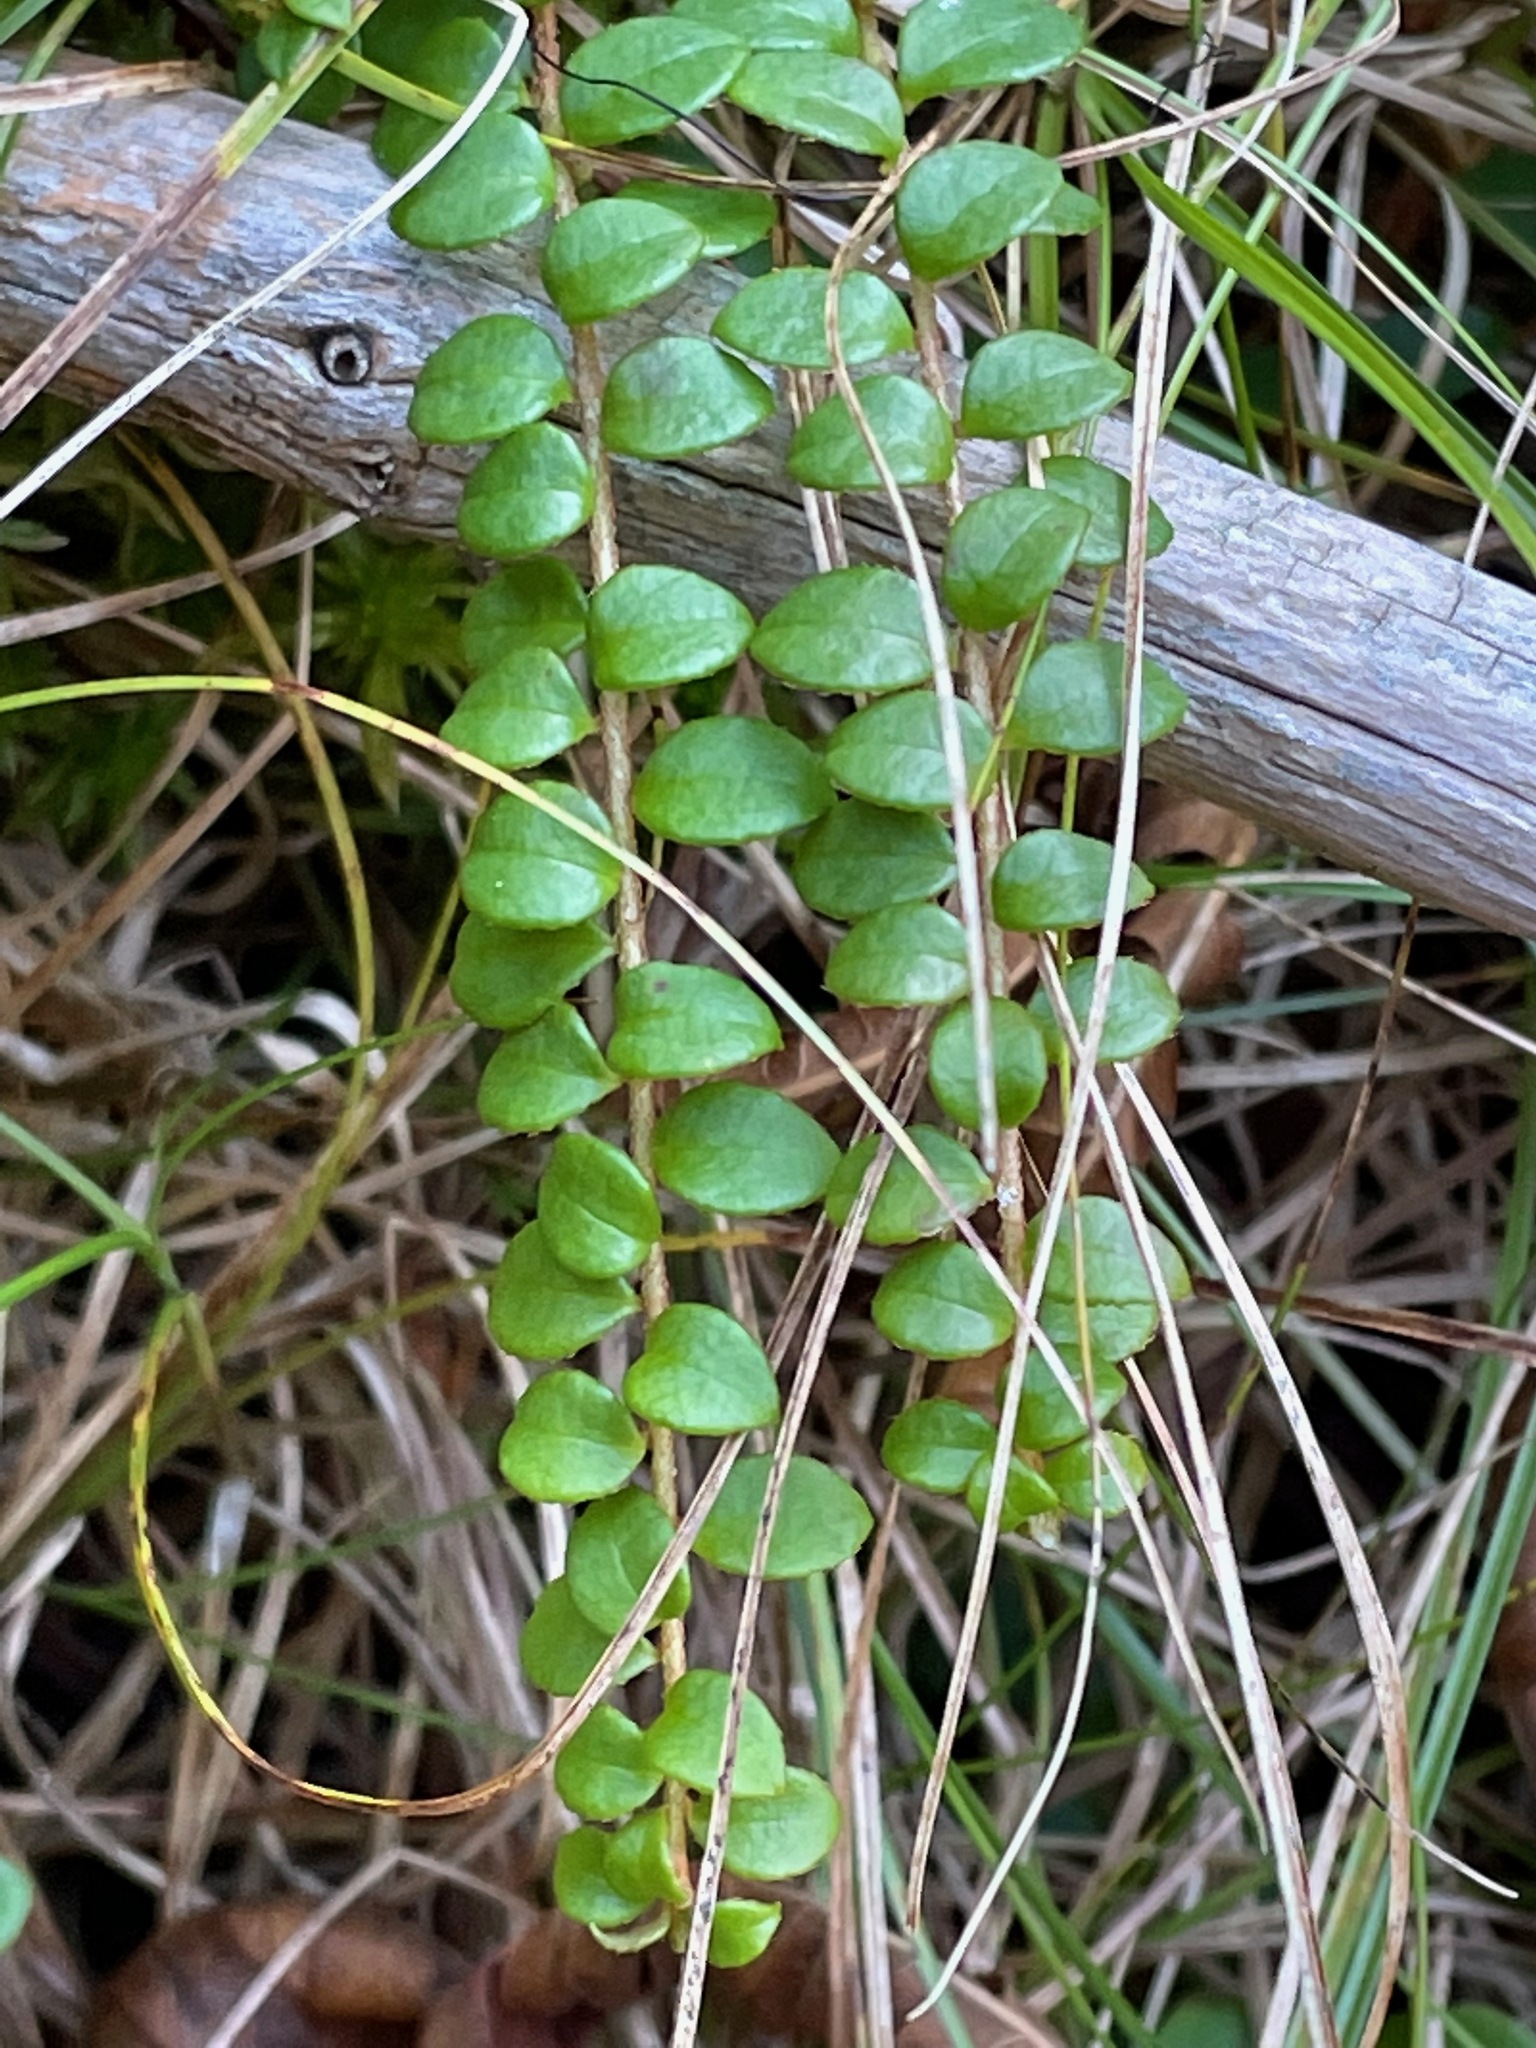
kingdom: Plantae
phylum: Tracheophyta
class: Magnoliopsida
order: Ericales
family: Ericaceae
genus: Gaultheria
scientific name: Gaultheria hispidula
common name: Cancer wintergreen
